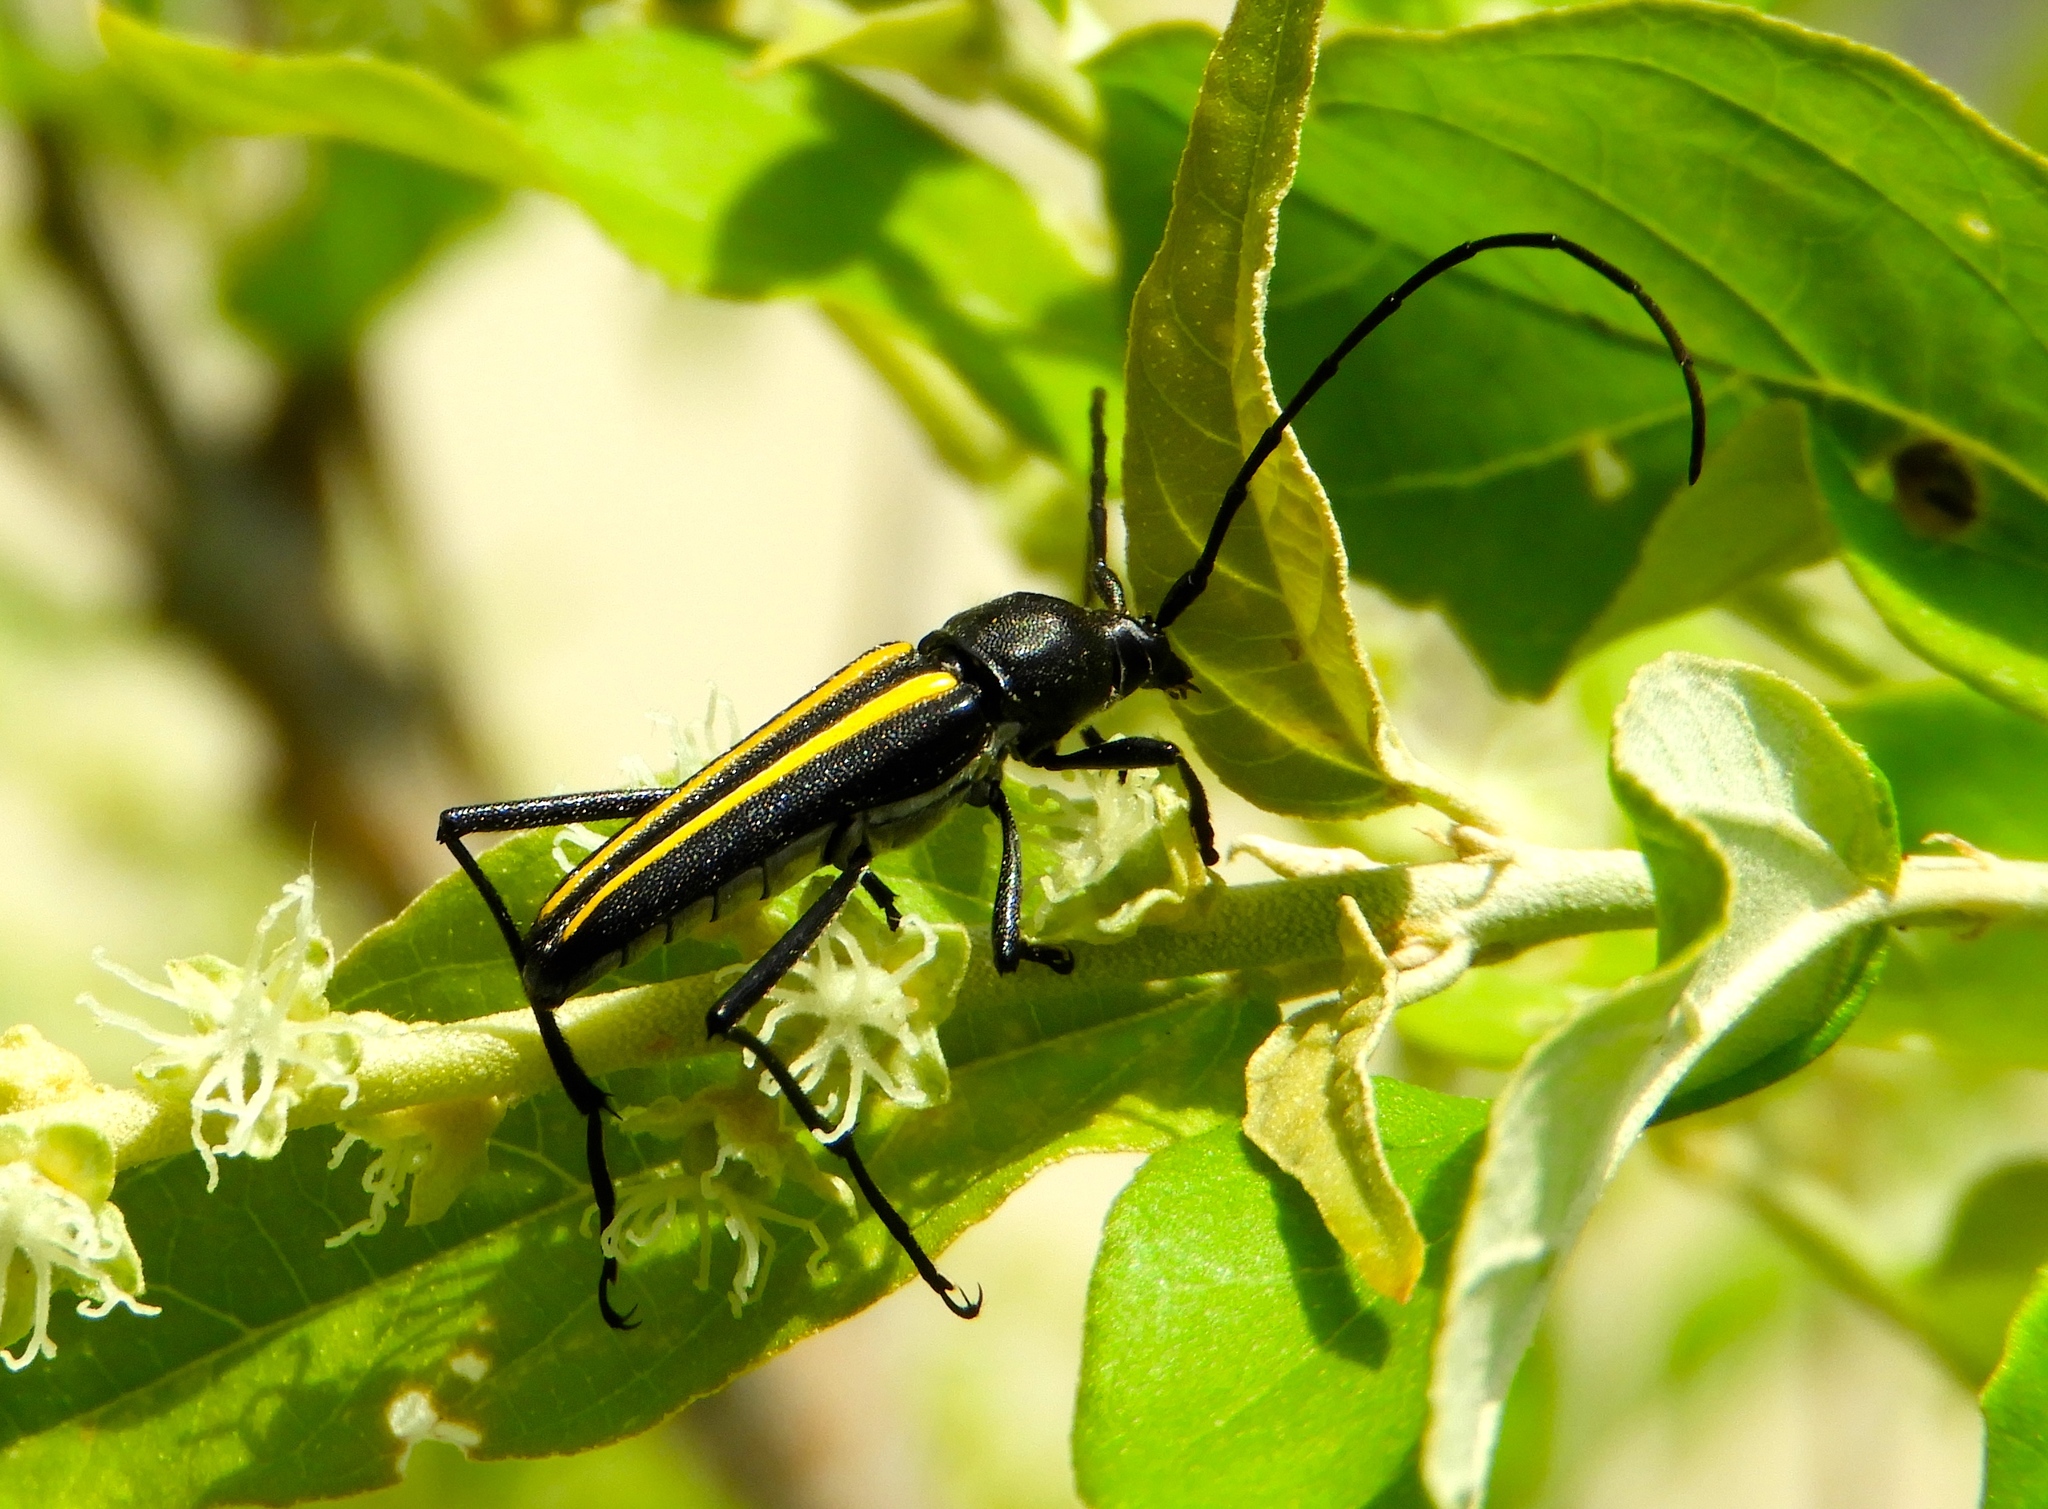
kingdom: Animalia
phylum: Arthropoda
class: Insecta
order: Coleoptera
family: Cerambycidae
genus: Lophalia
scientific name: Lophalia
